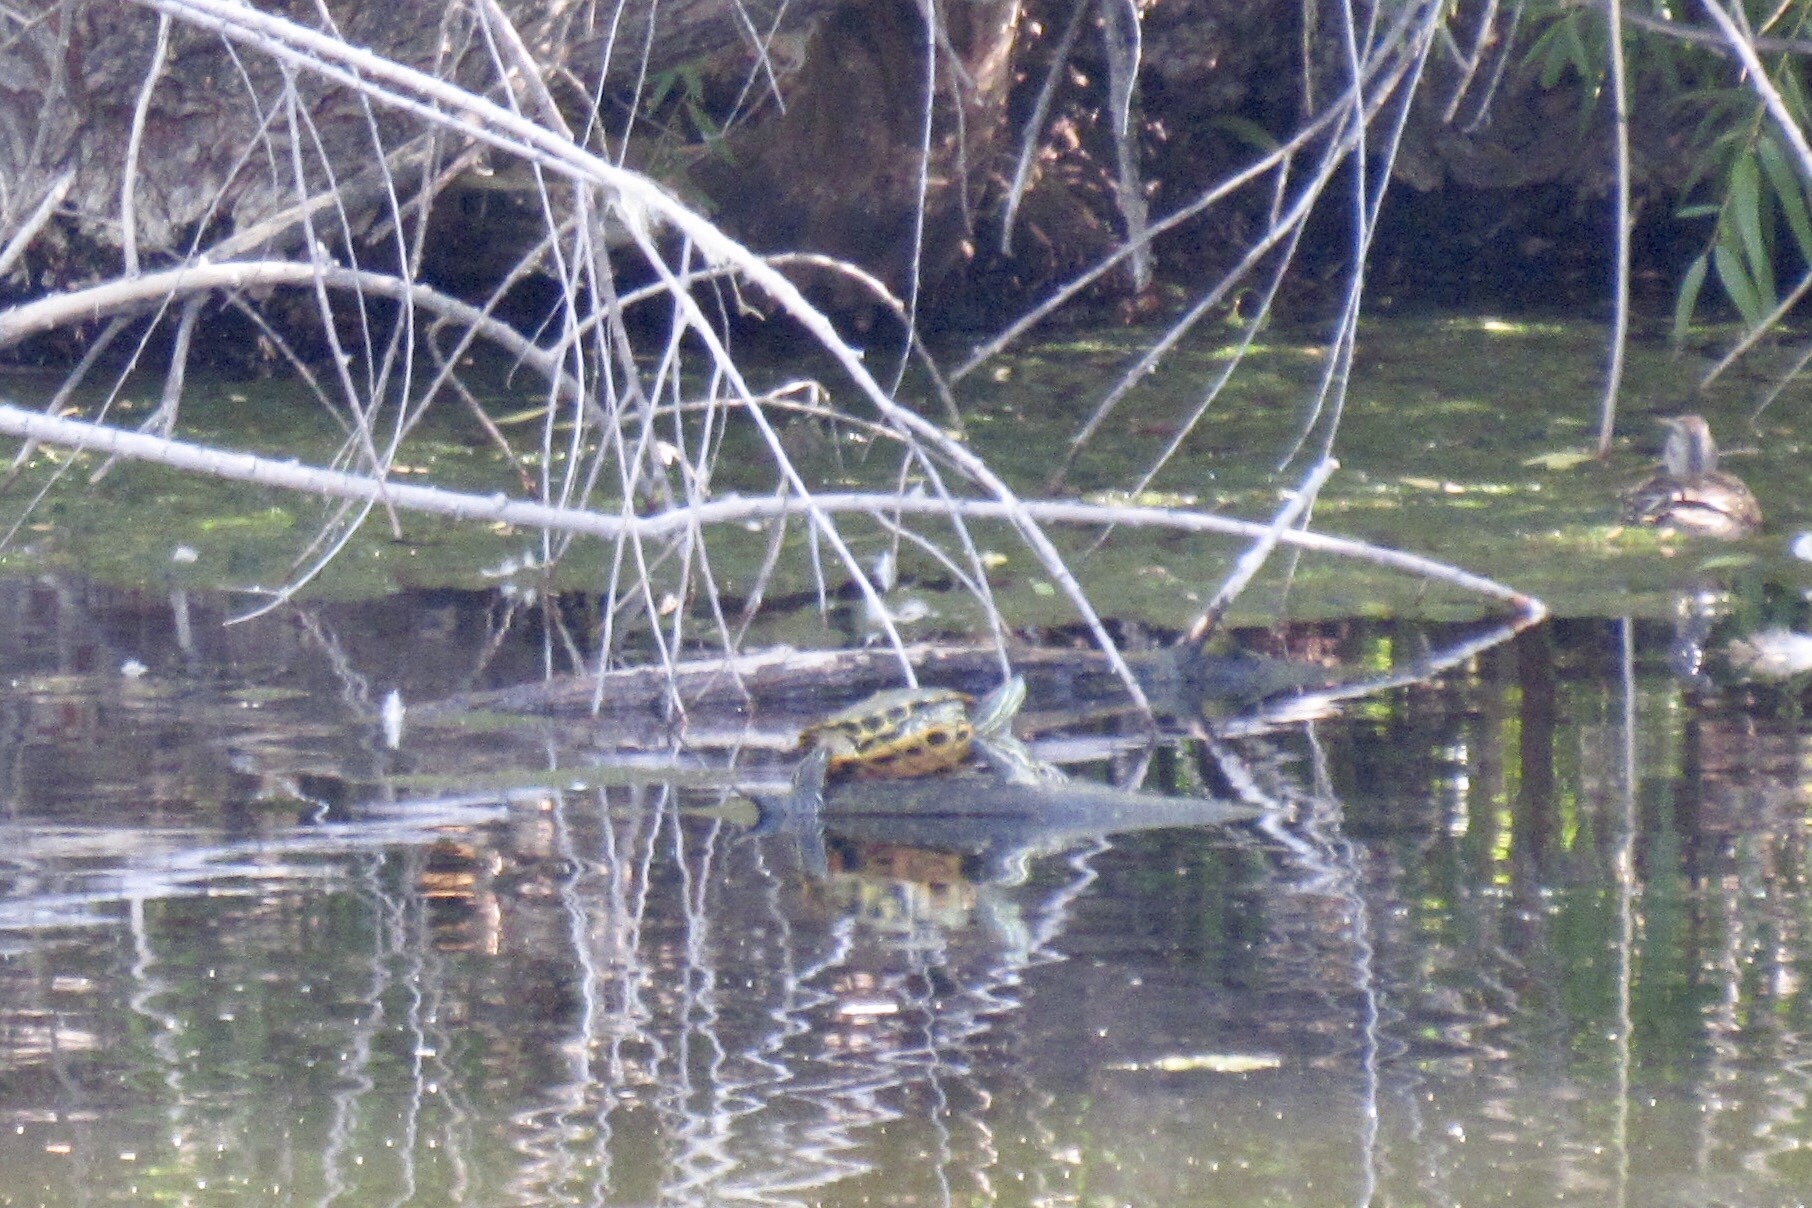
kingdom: Animalia
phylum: Chordata
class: Testudines
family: Emydidae
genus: Trachemys
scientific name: Trachemys scripta
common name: Slider
